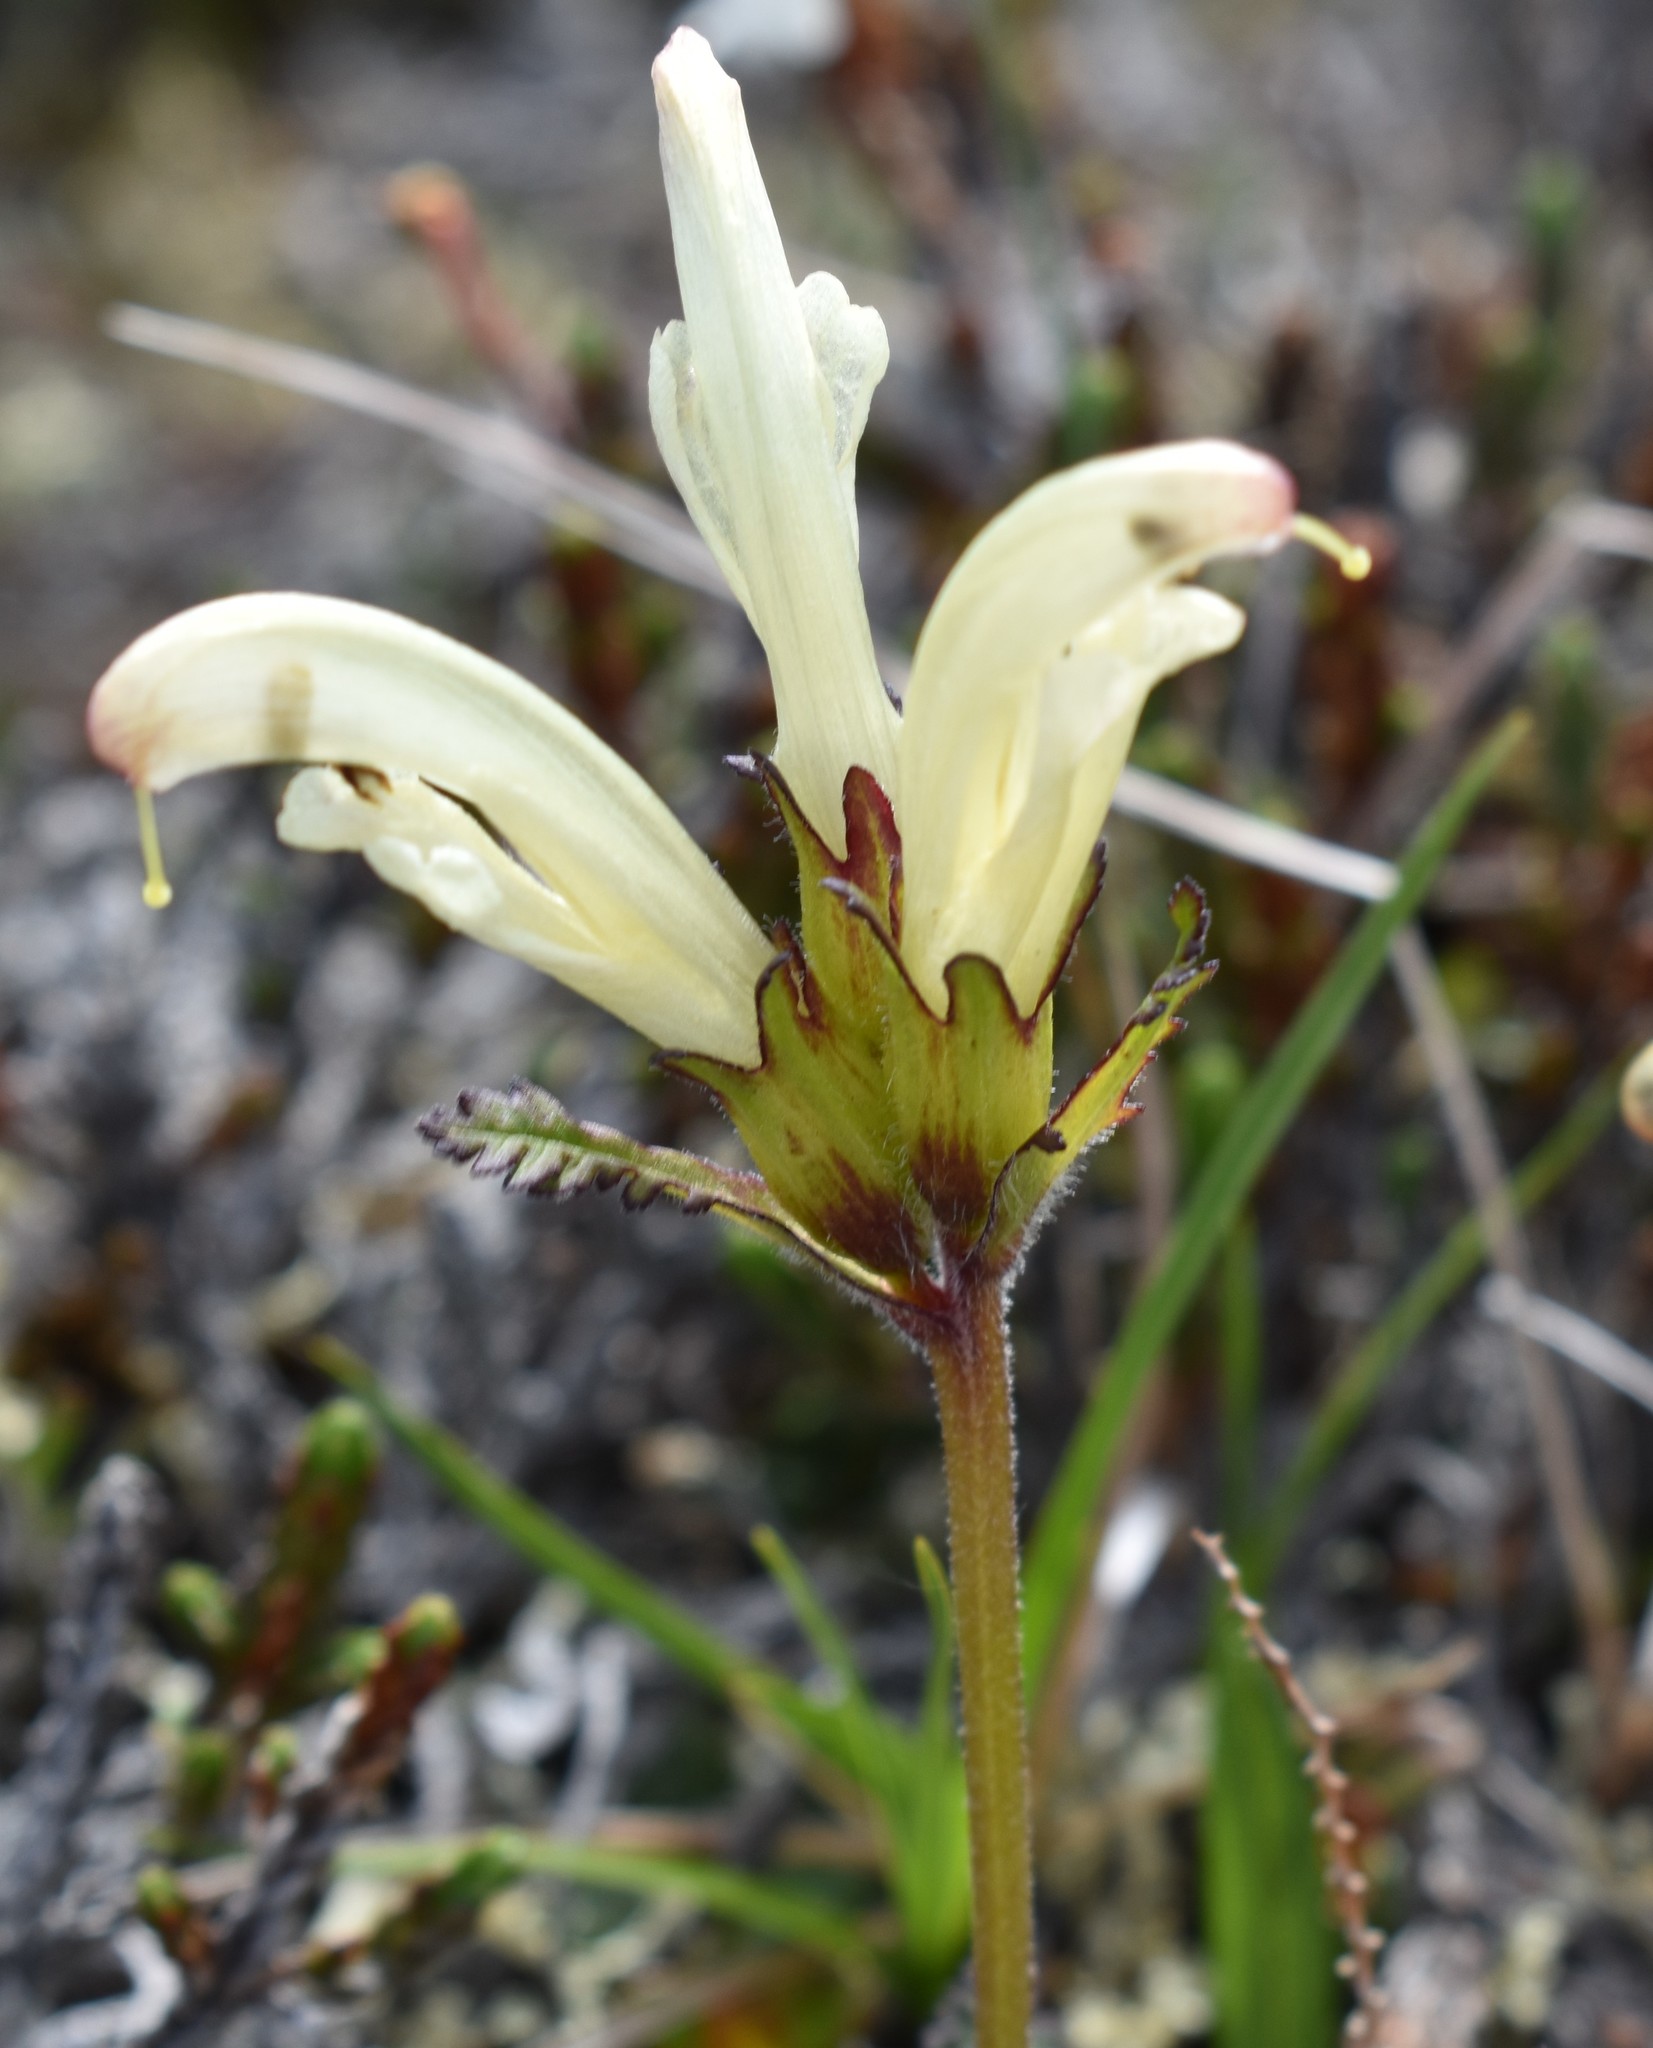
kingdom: Plantae
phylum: Tracheophyta
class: Magnoliopsida
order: Lamiales
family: Orobanchaceae
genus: Pedicularis
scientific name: Pedicularis capitata
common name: Capitate lousewort
